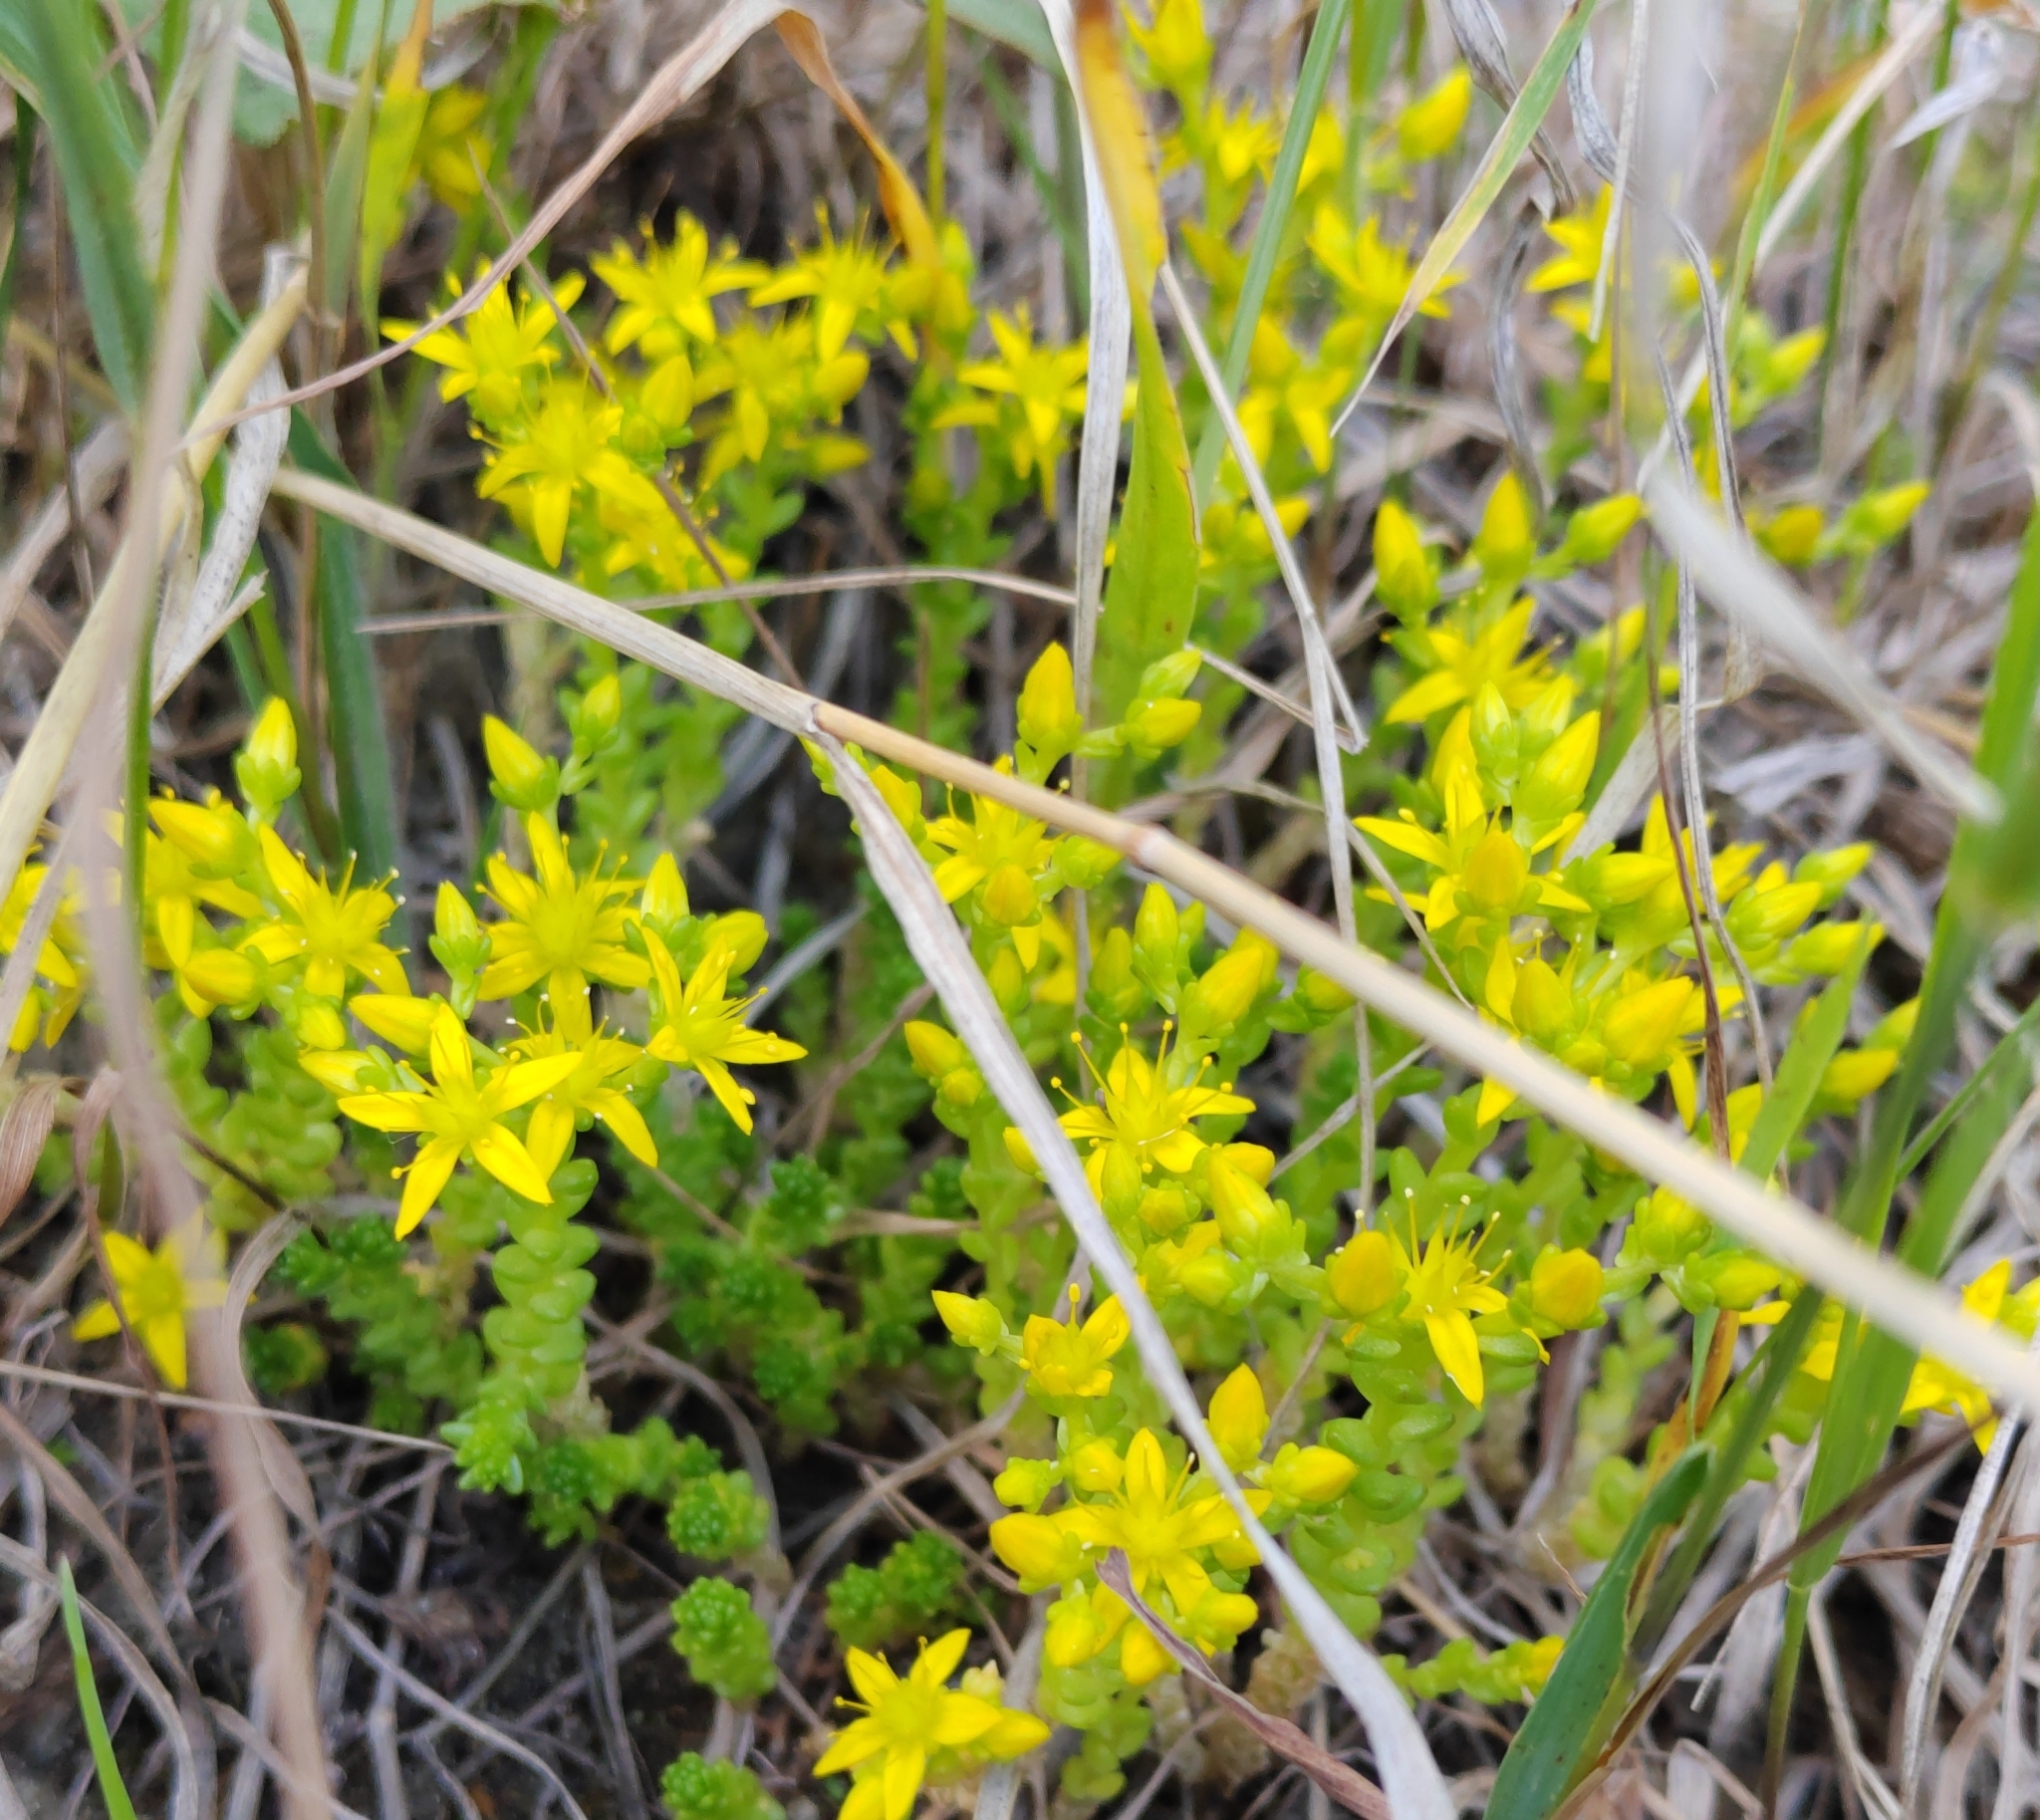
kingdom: Plantae
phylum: Tracheophyta
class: Magnoliopsida
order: Saxifragales
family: Crassulaceae
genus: Sedum
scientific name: Sedum acre
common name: Biting stonecrop
